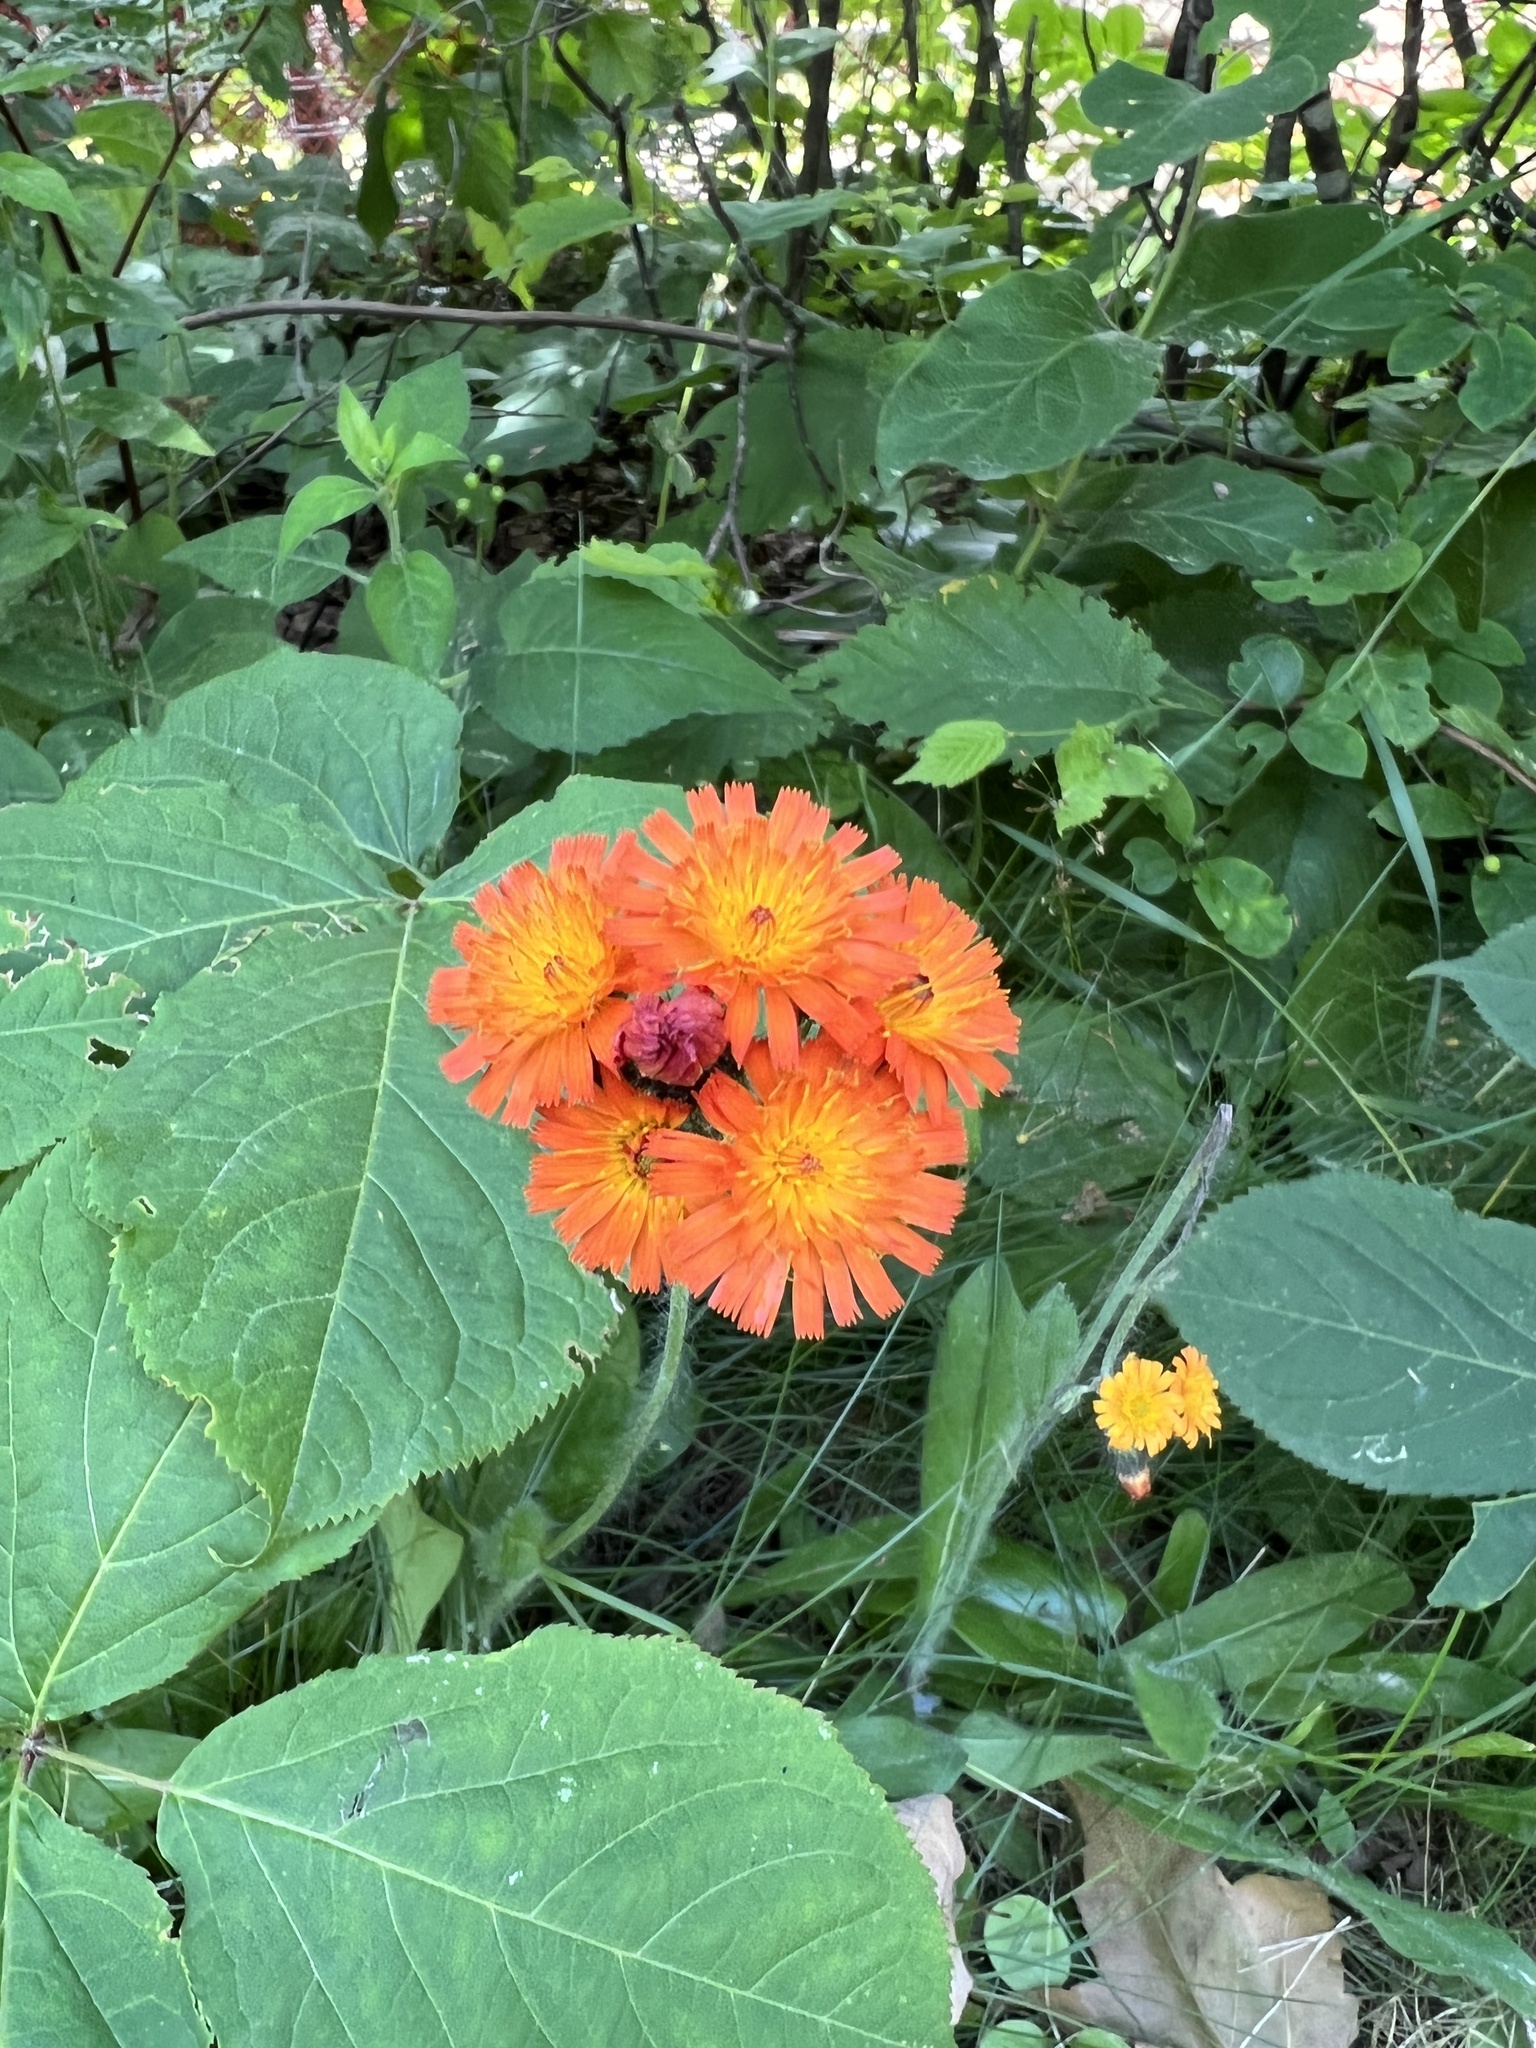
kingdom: Plantae
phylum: Tracheophyta
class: Magnoliopsida
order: Asterales
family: Asteraceae
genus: Pilosella
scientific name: Pilosella aurantiaca
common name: Fox-and-cubs
